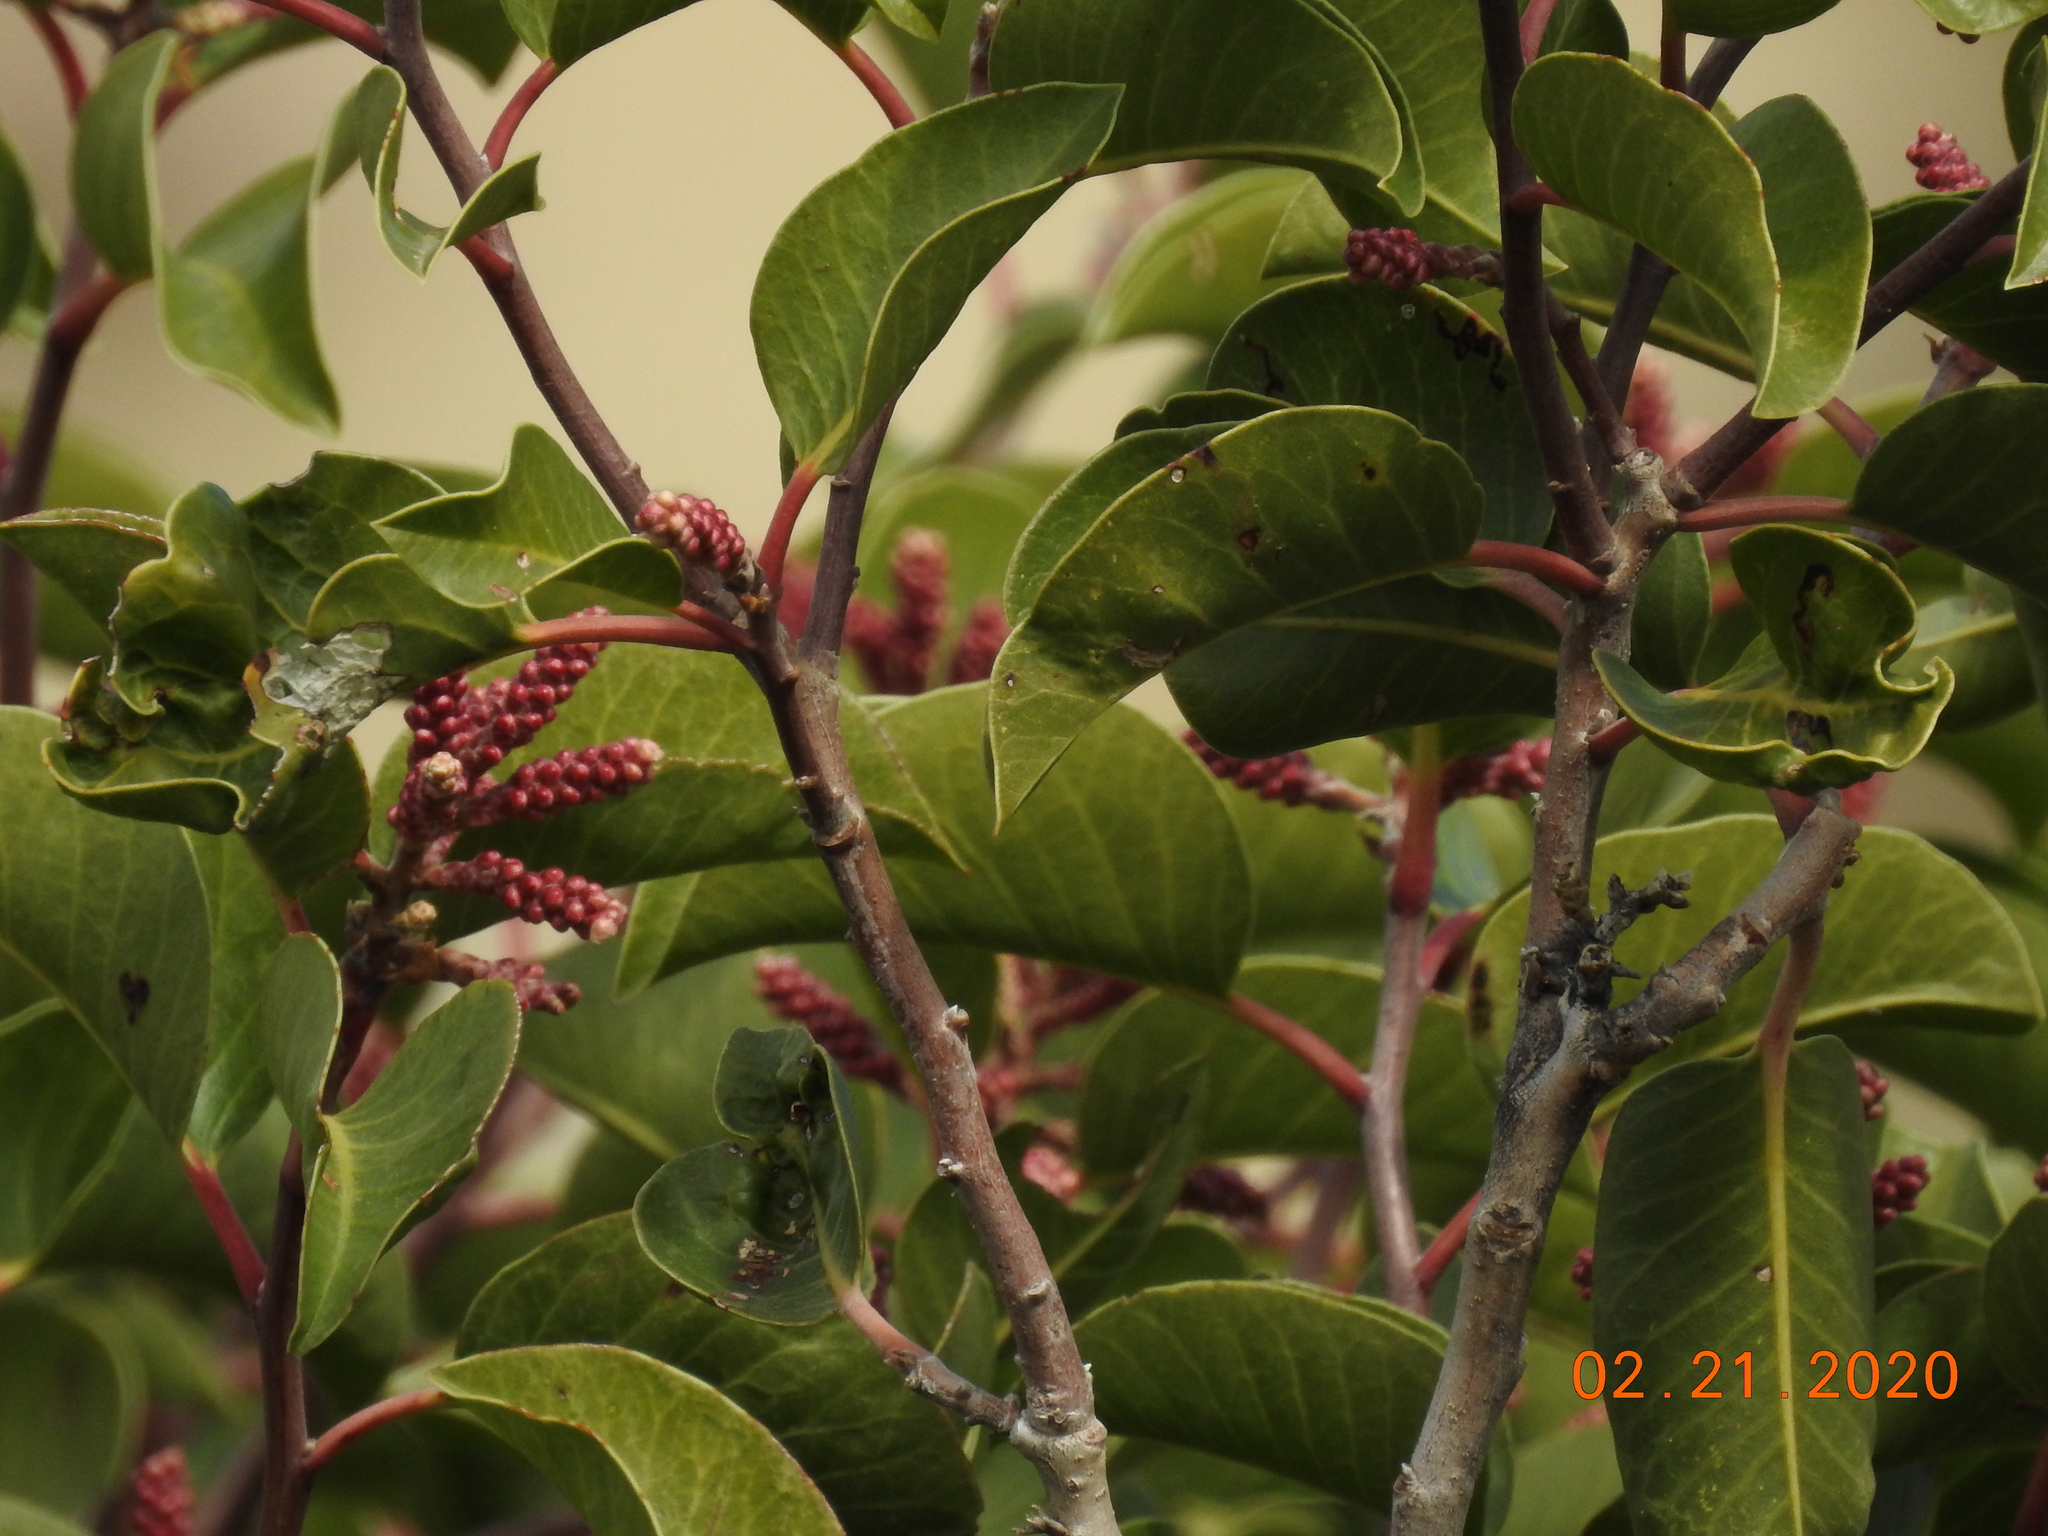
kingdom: Plantae
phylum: Tracheophyta
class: Magnoliopsida
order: Sapindales
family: Anacardiaceae
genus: Rhus
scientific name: Rhus ovata
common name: Sugar sumac
